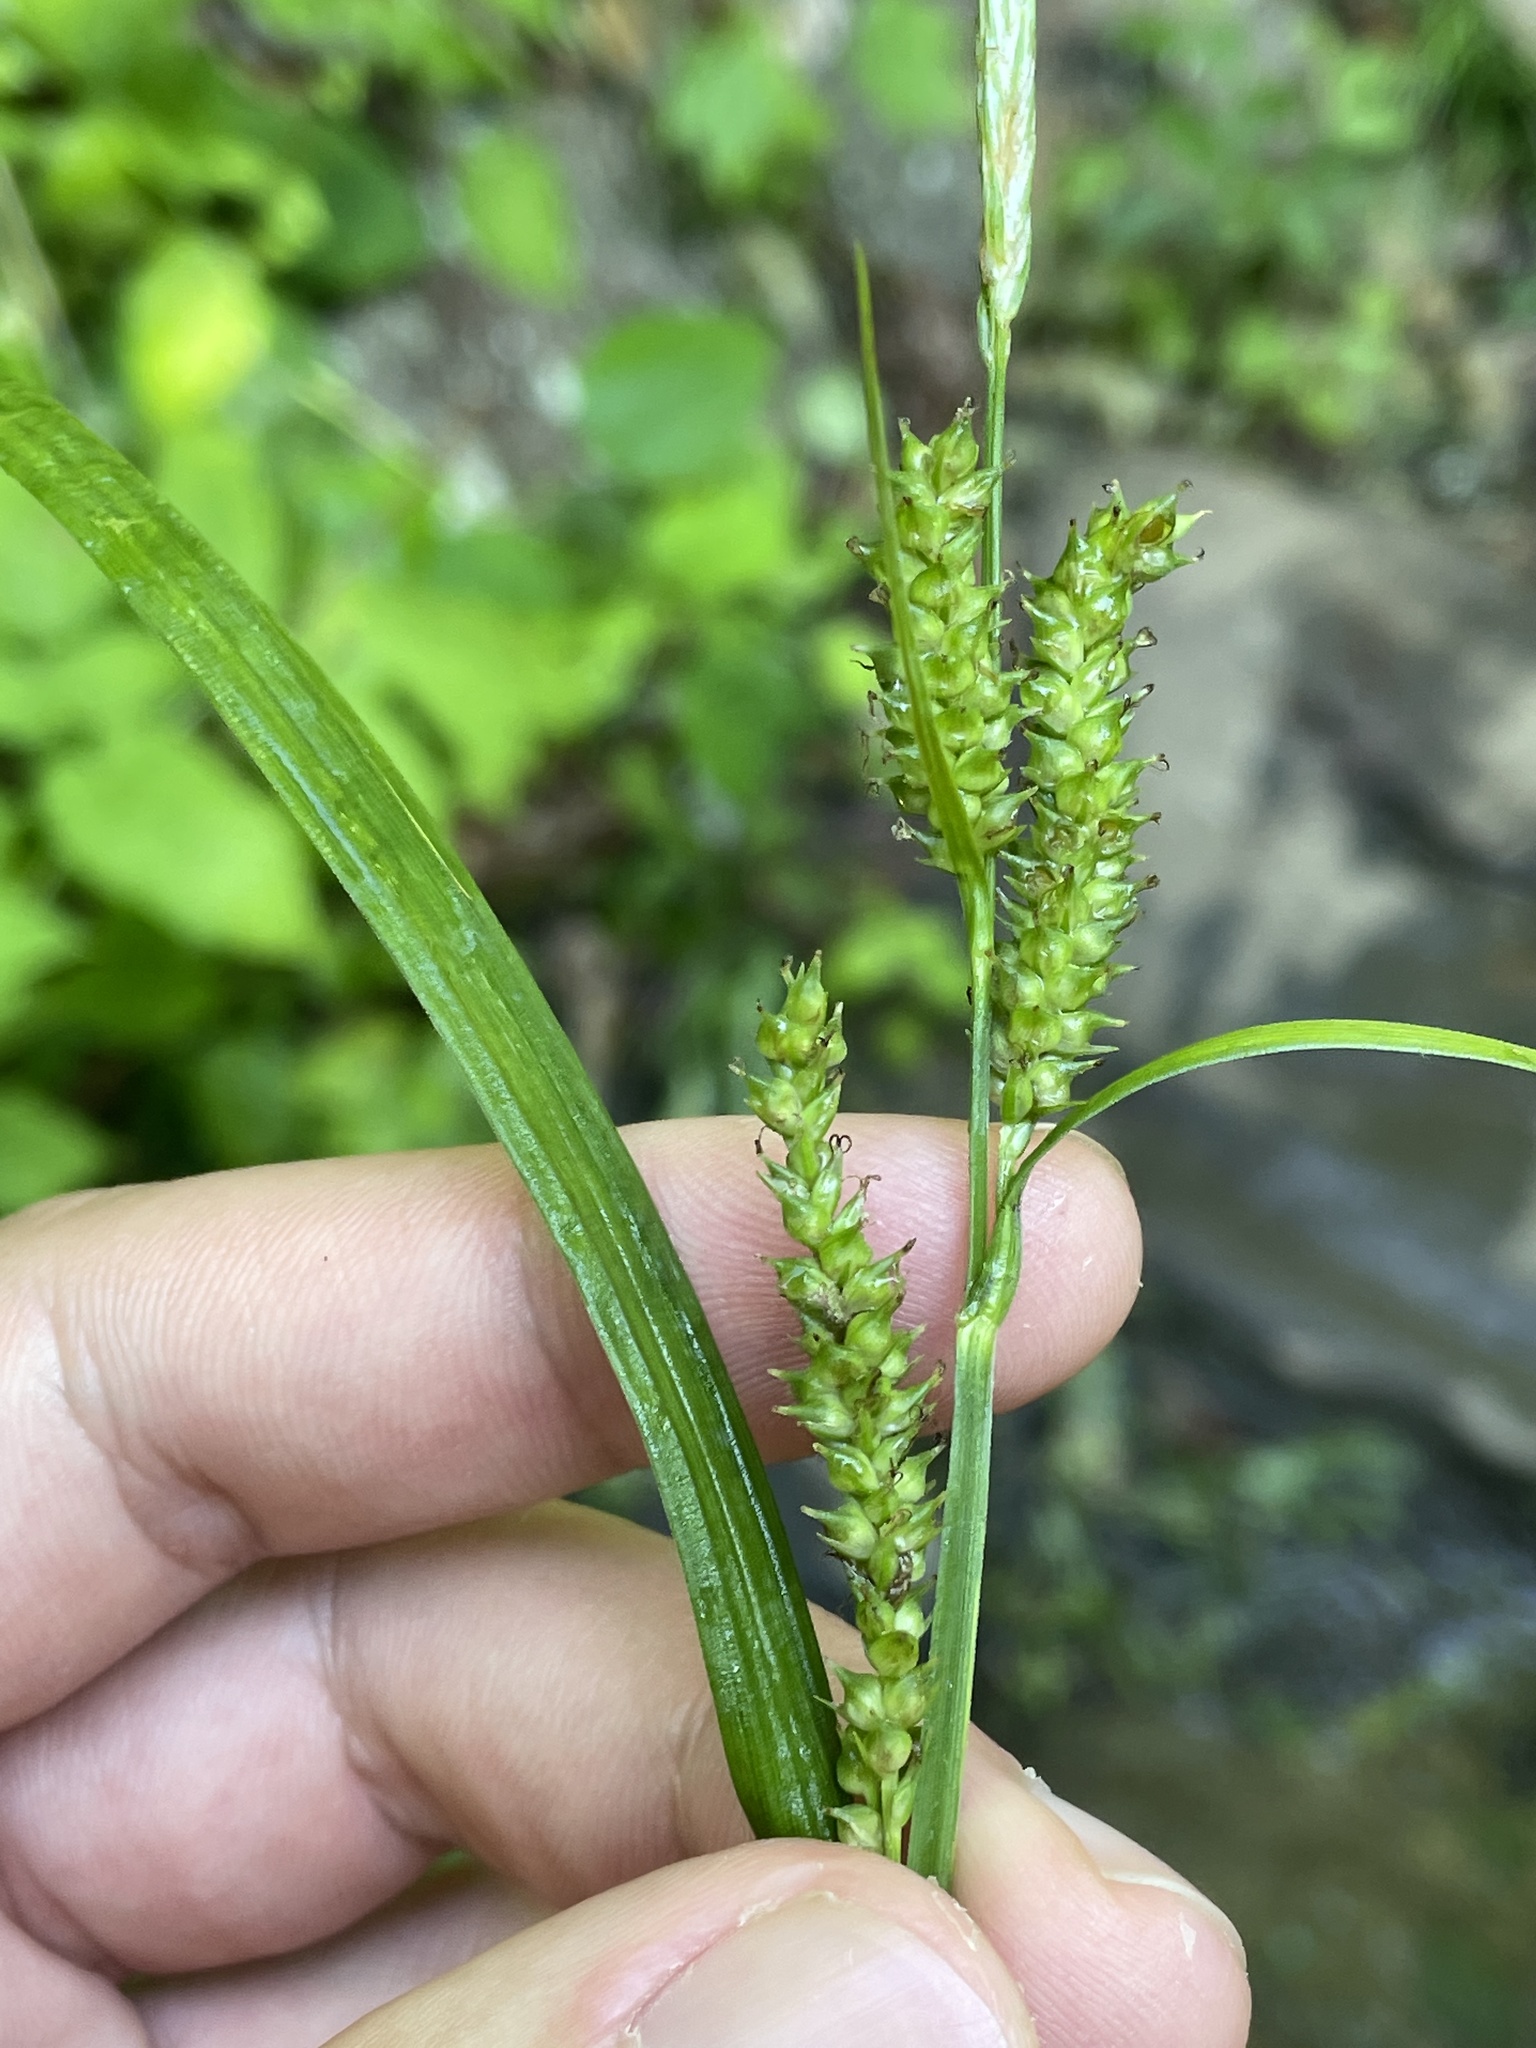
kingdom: Plantae
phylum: Tracheophyta
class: Liliopsida
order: Poales
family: Cyperaceae
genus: Carex
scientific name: Carex scabrata
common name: Eastern rough sedge
